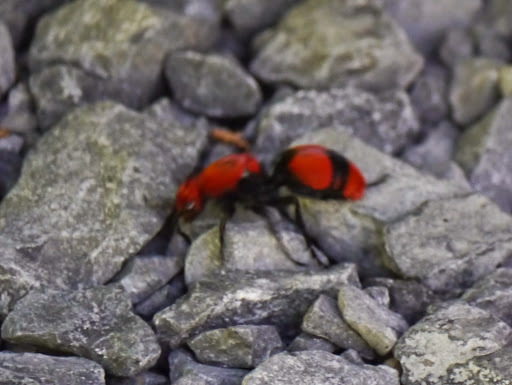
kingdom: Animalia
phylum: Arthropoda
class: Insecta
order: Hymenoptera
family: Mutillidae
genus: Dasymutilla
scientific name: Dasymutilla occidentalis
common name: Common eastern velvet ant
